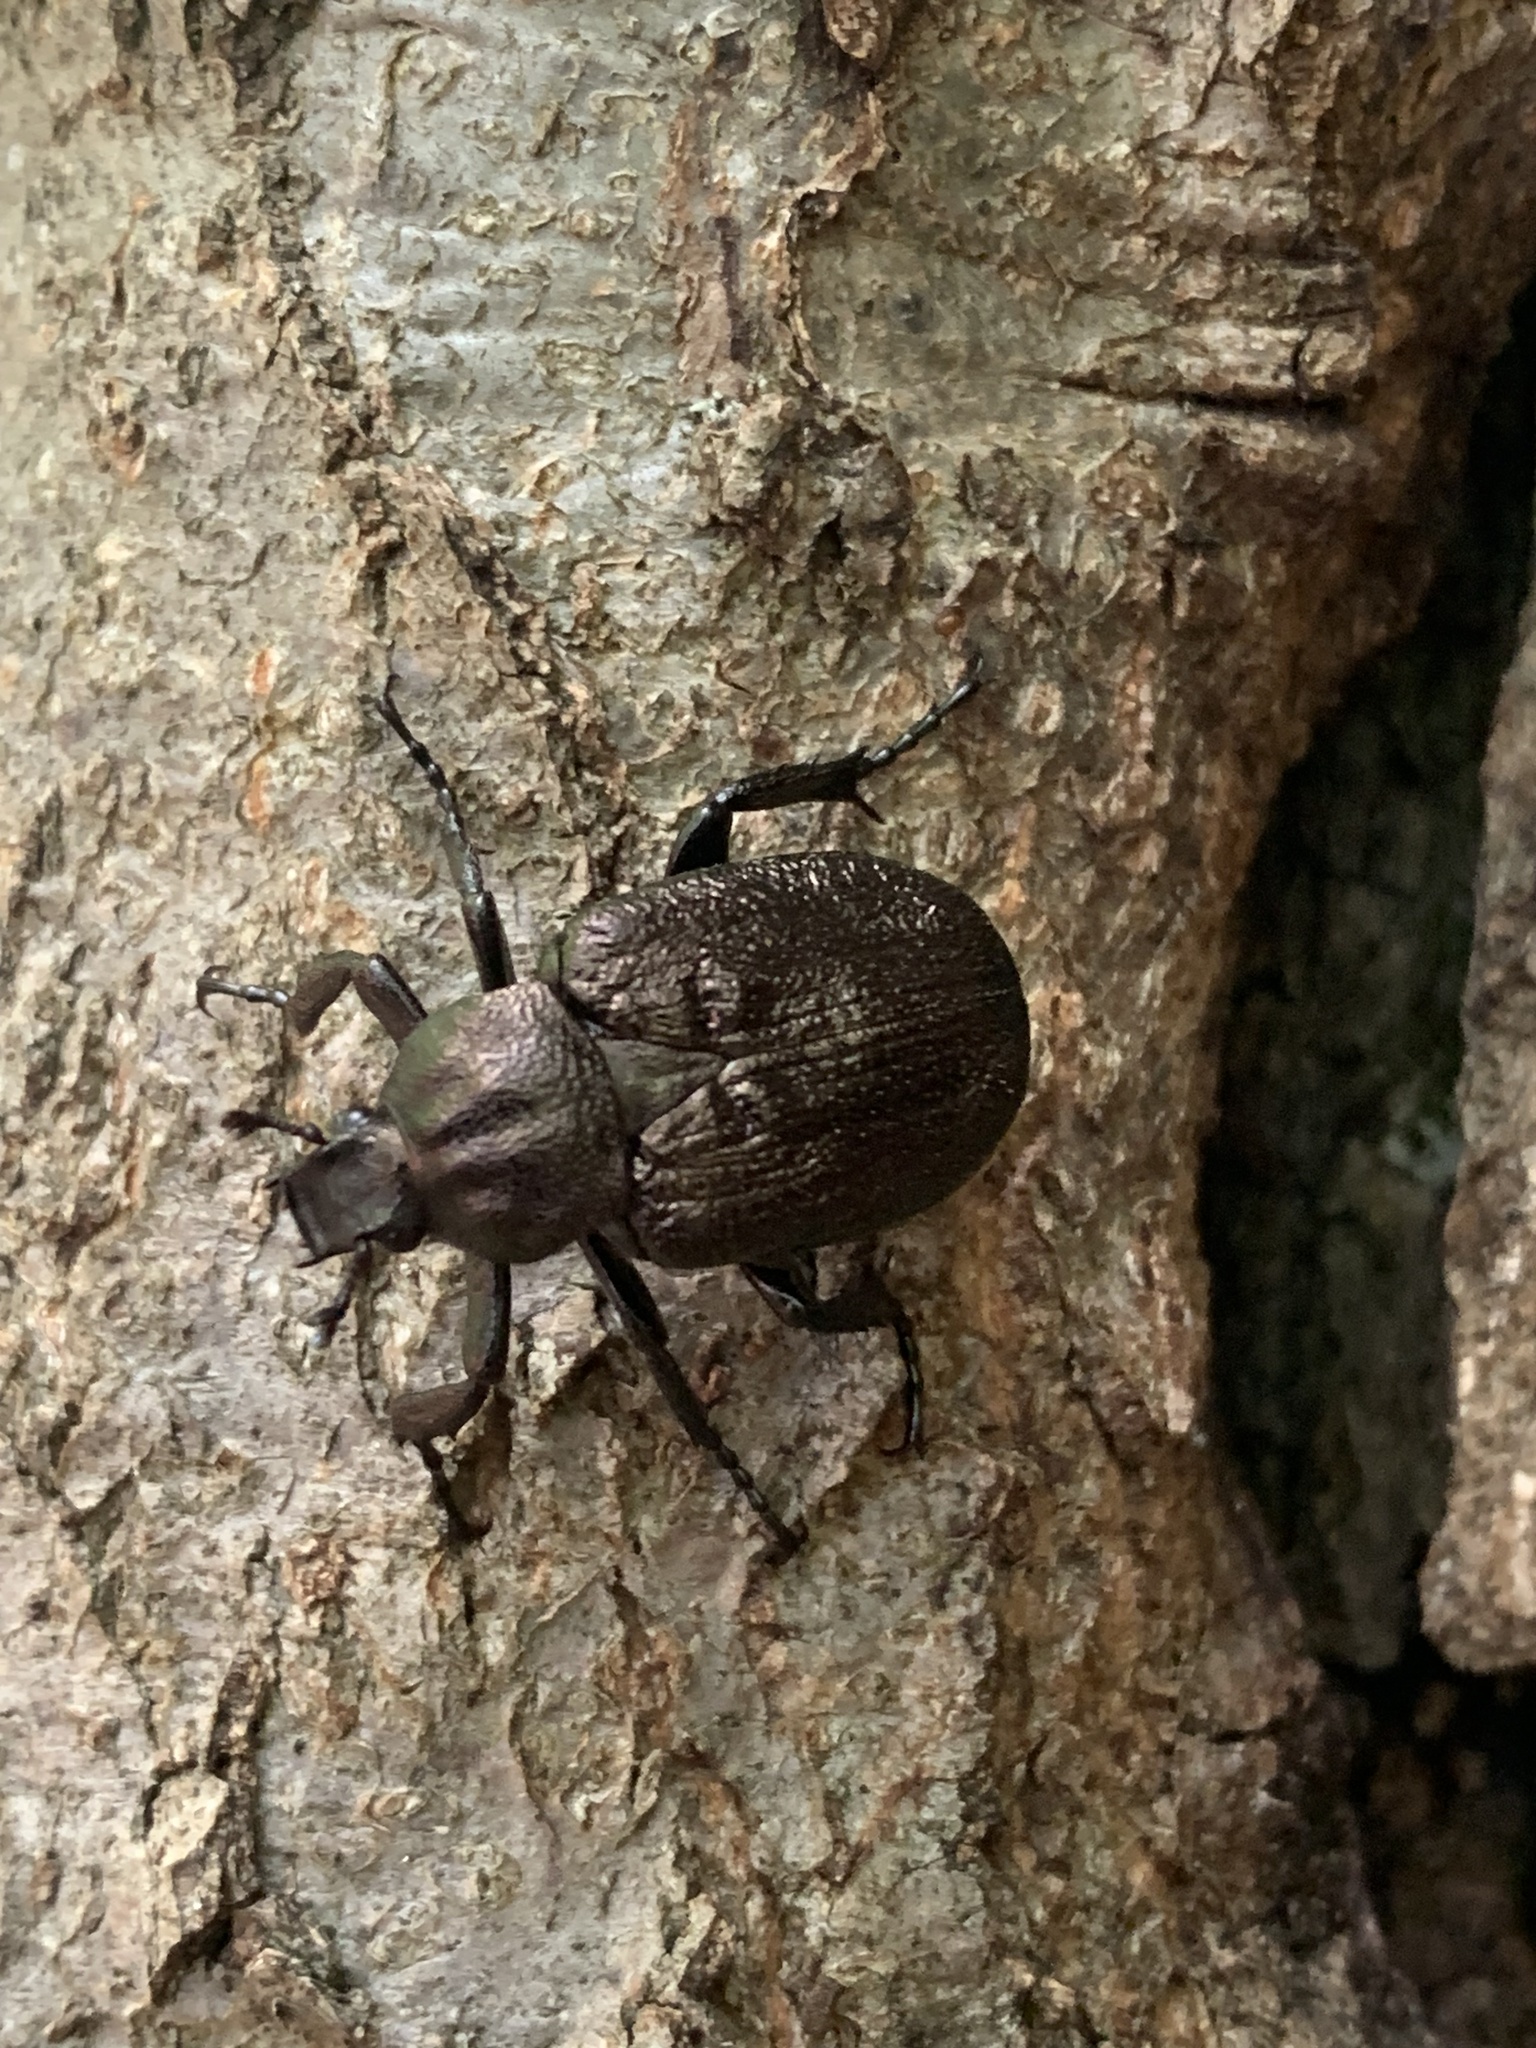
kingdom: Animalia
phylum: Arthropoda
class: Insecta
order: Coleoptera
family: Scarabaeidae
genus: Osmoderma
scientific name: Osmoderma scabra
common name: Rough hermit beetle
